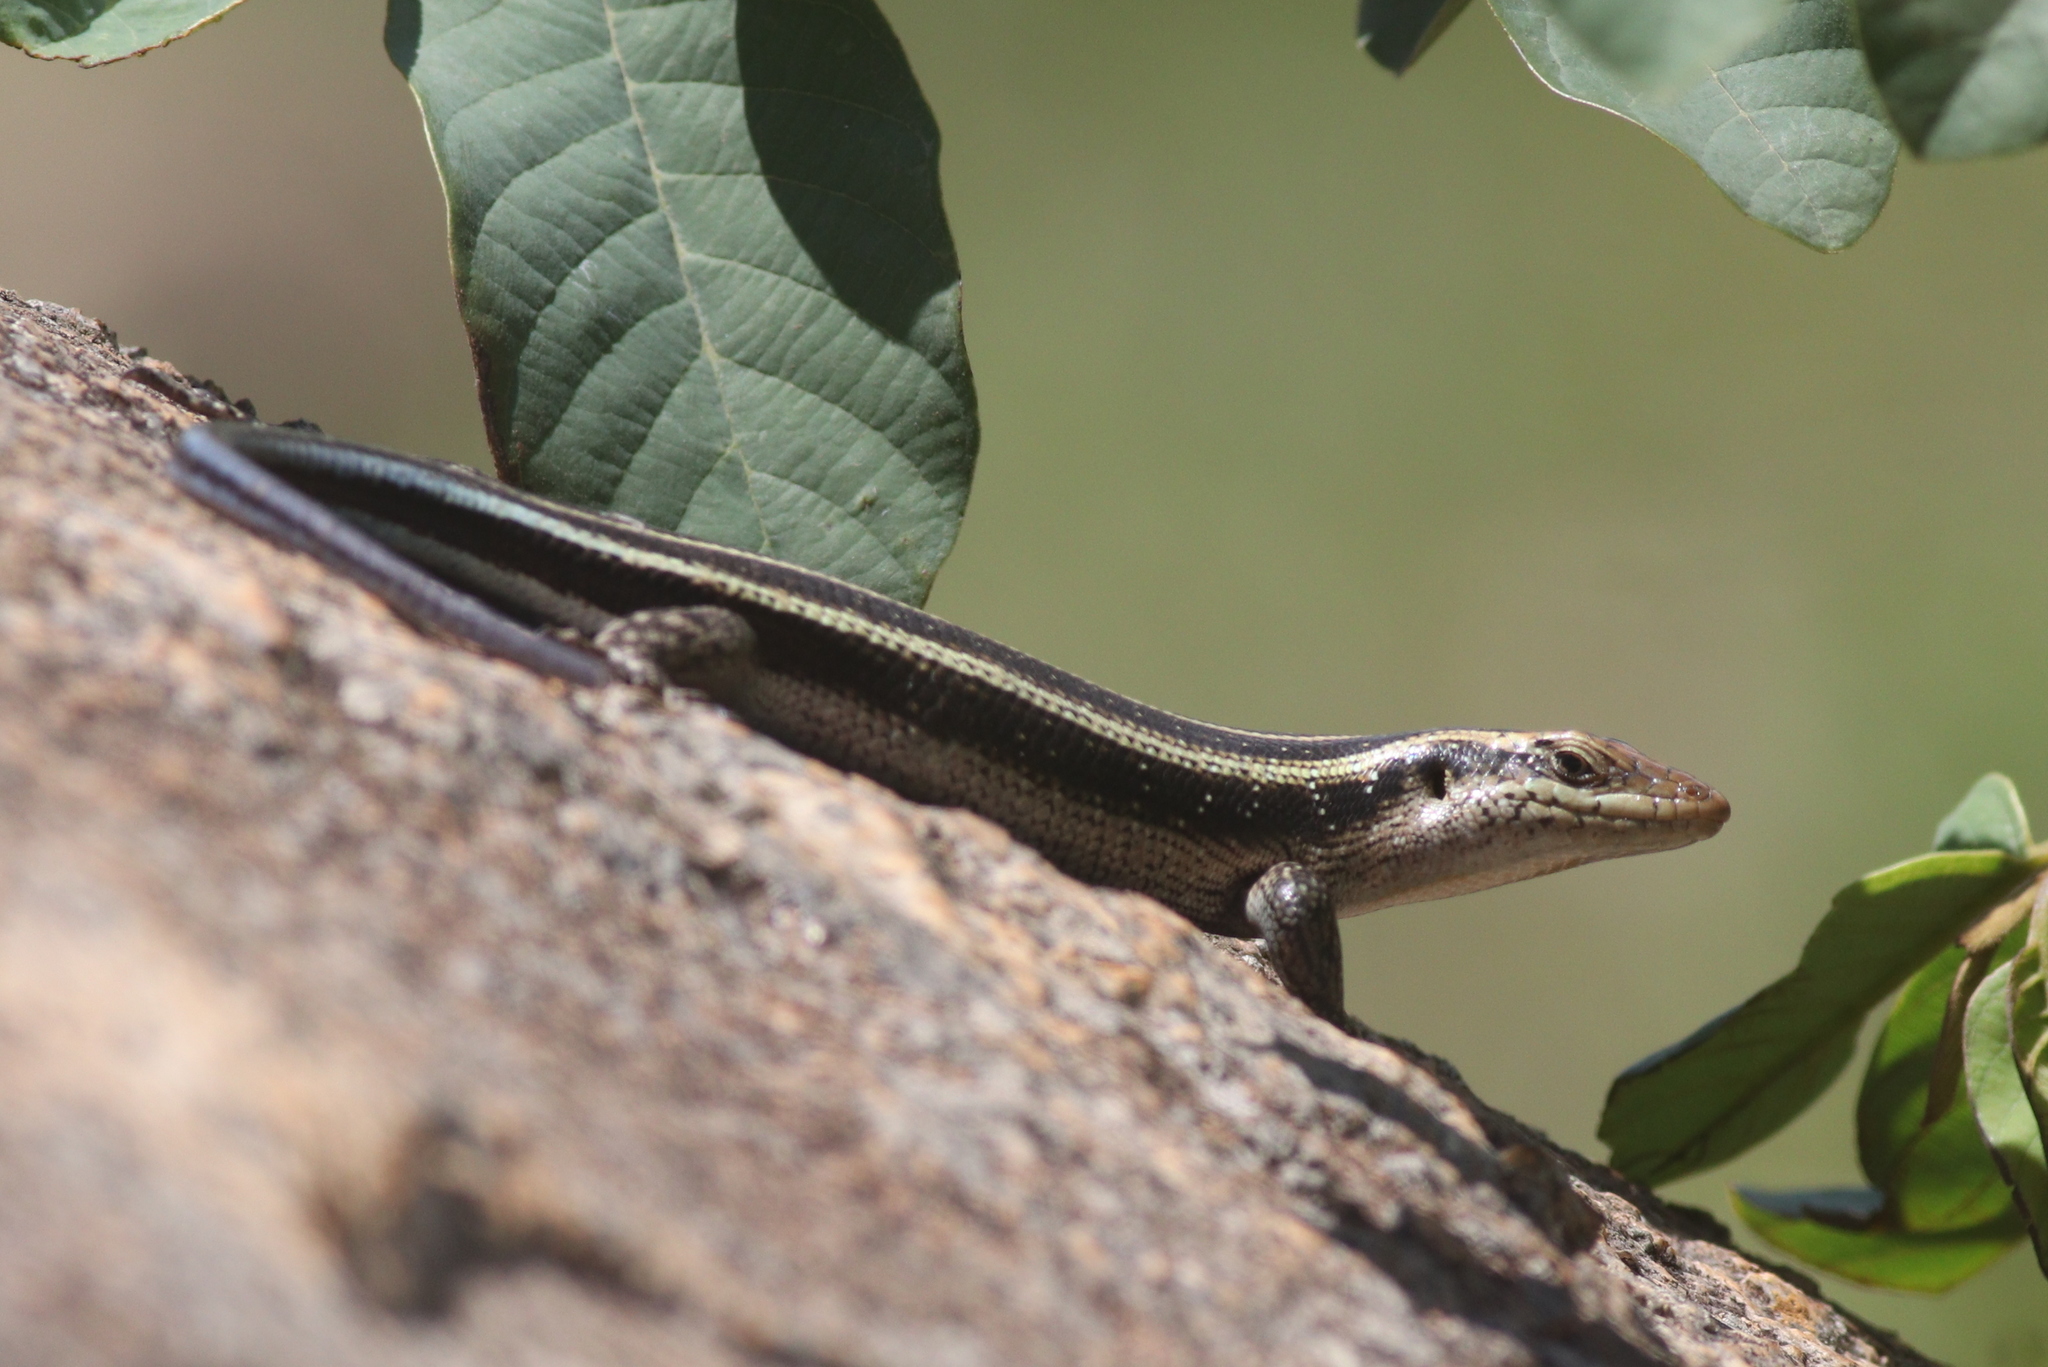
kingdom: Animalia
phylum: Chordata
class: Squamata
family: Scincidae
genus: Trachylepis
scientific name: Trachylepis margaritifera
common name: Rainbow skink
